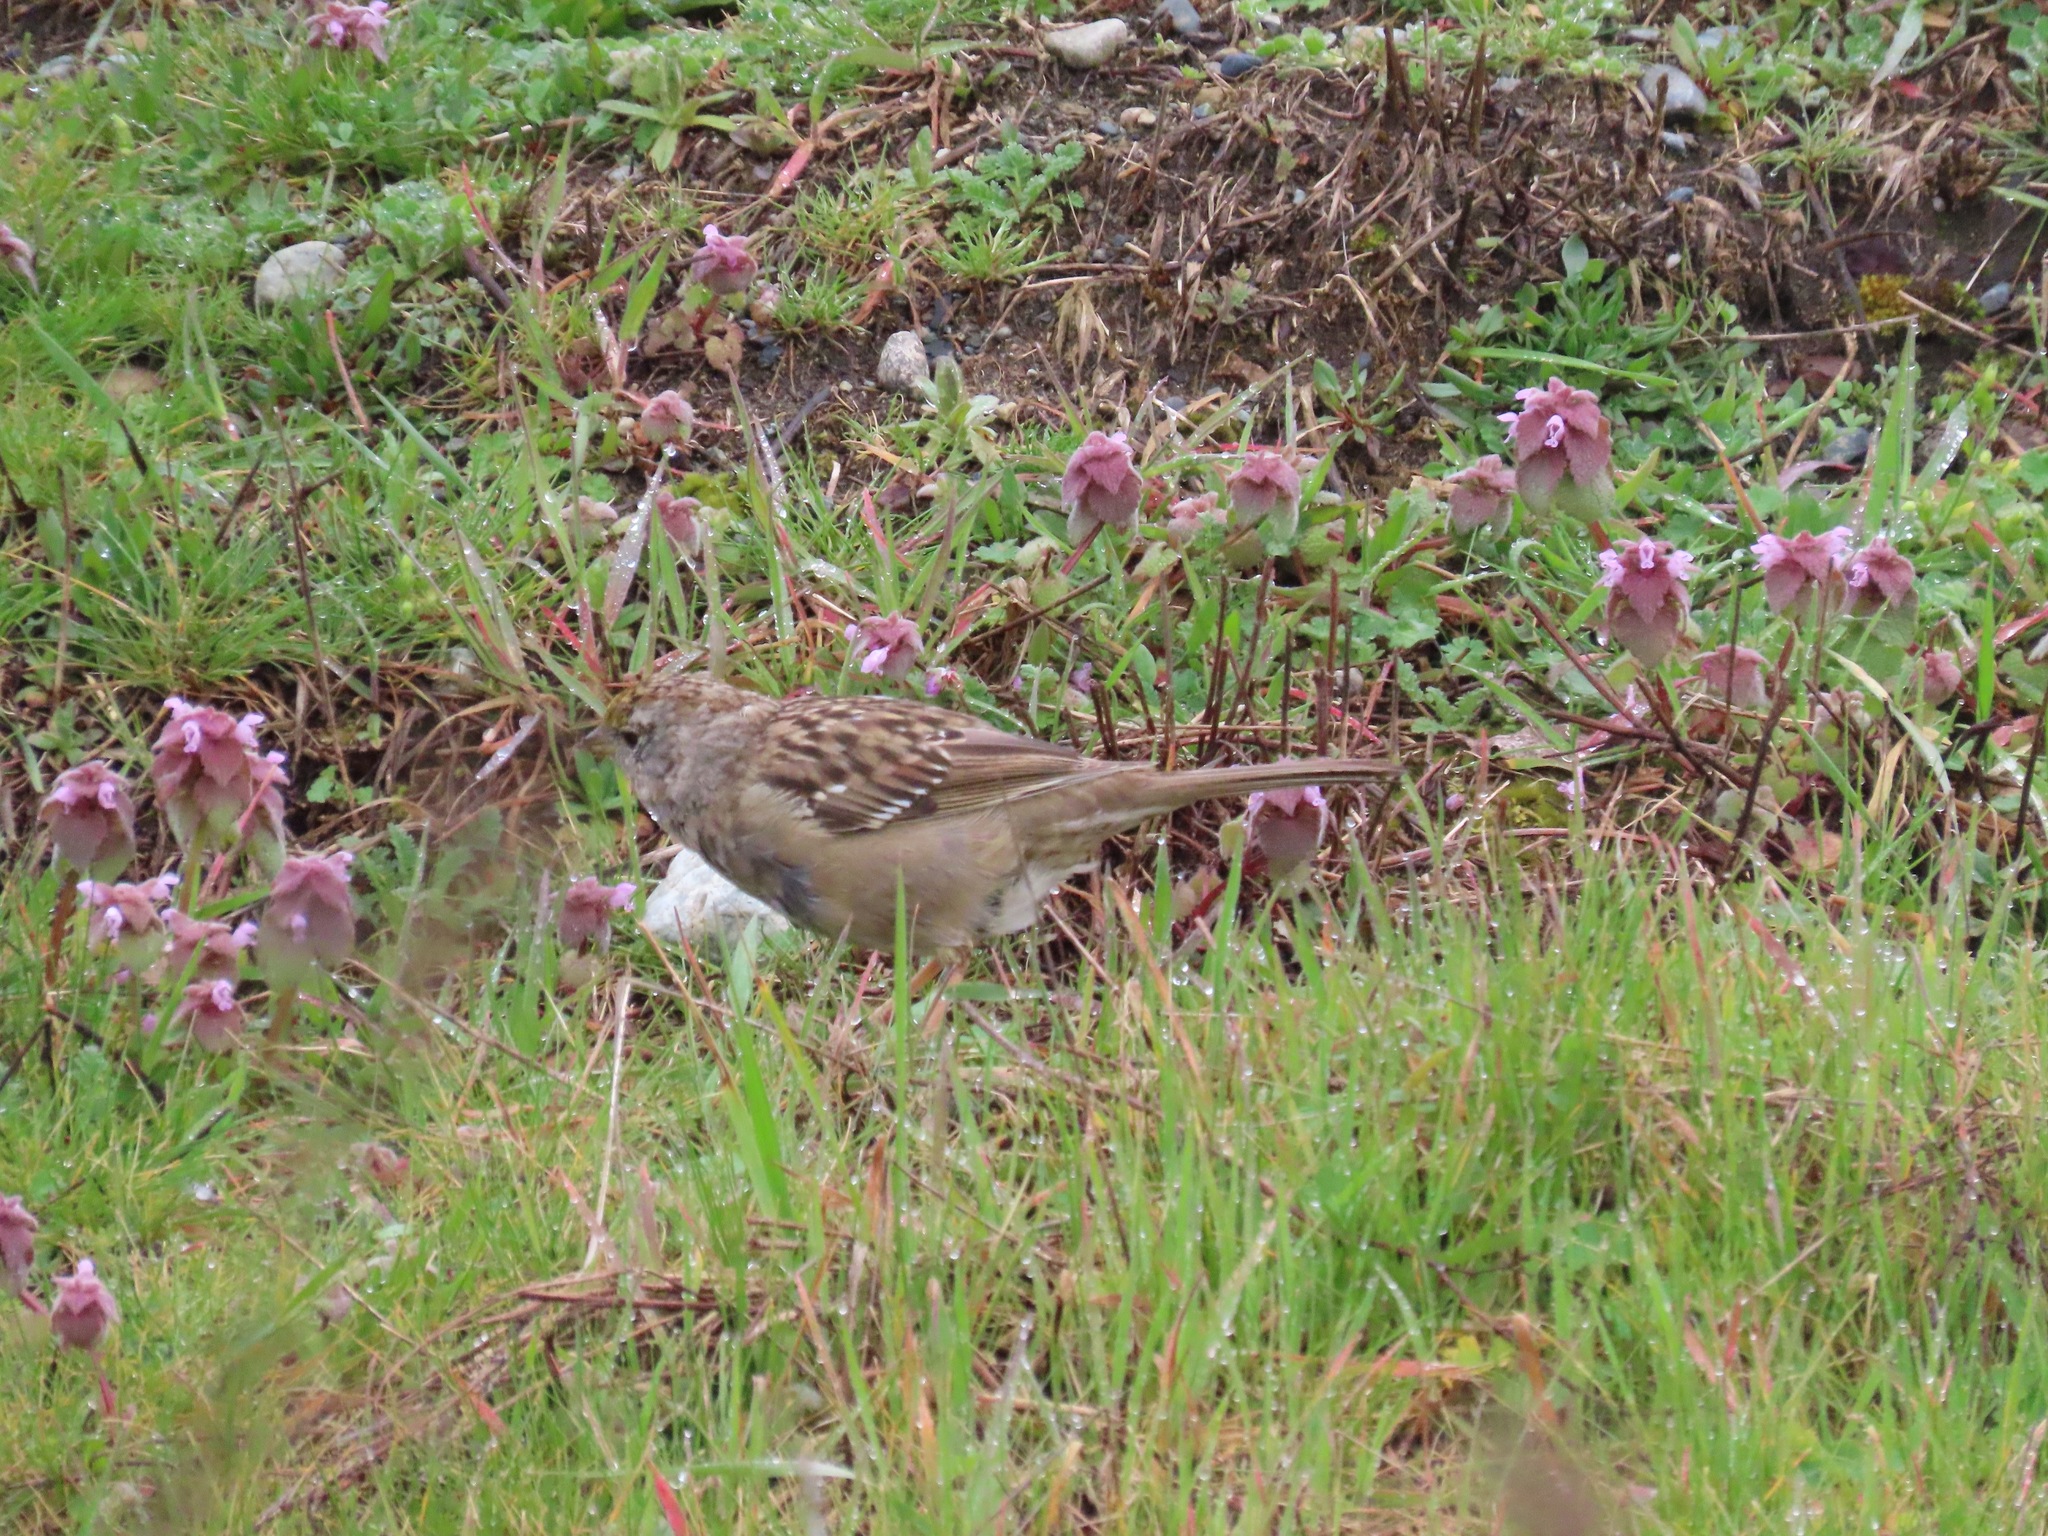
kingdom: Animalia
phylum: Chordata
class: Aves
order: Passeriformes
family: Passerellidae
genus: Zonotrichia
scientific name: Zonotrichia atricapilla
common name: Golden-crowned sparrow
